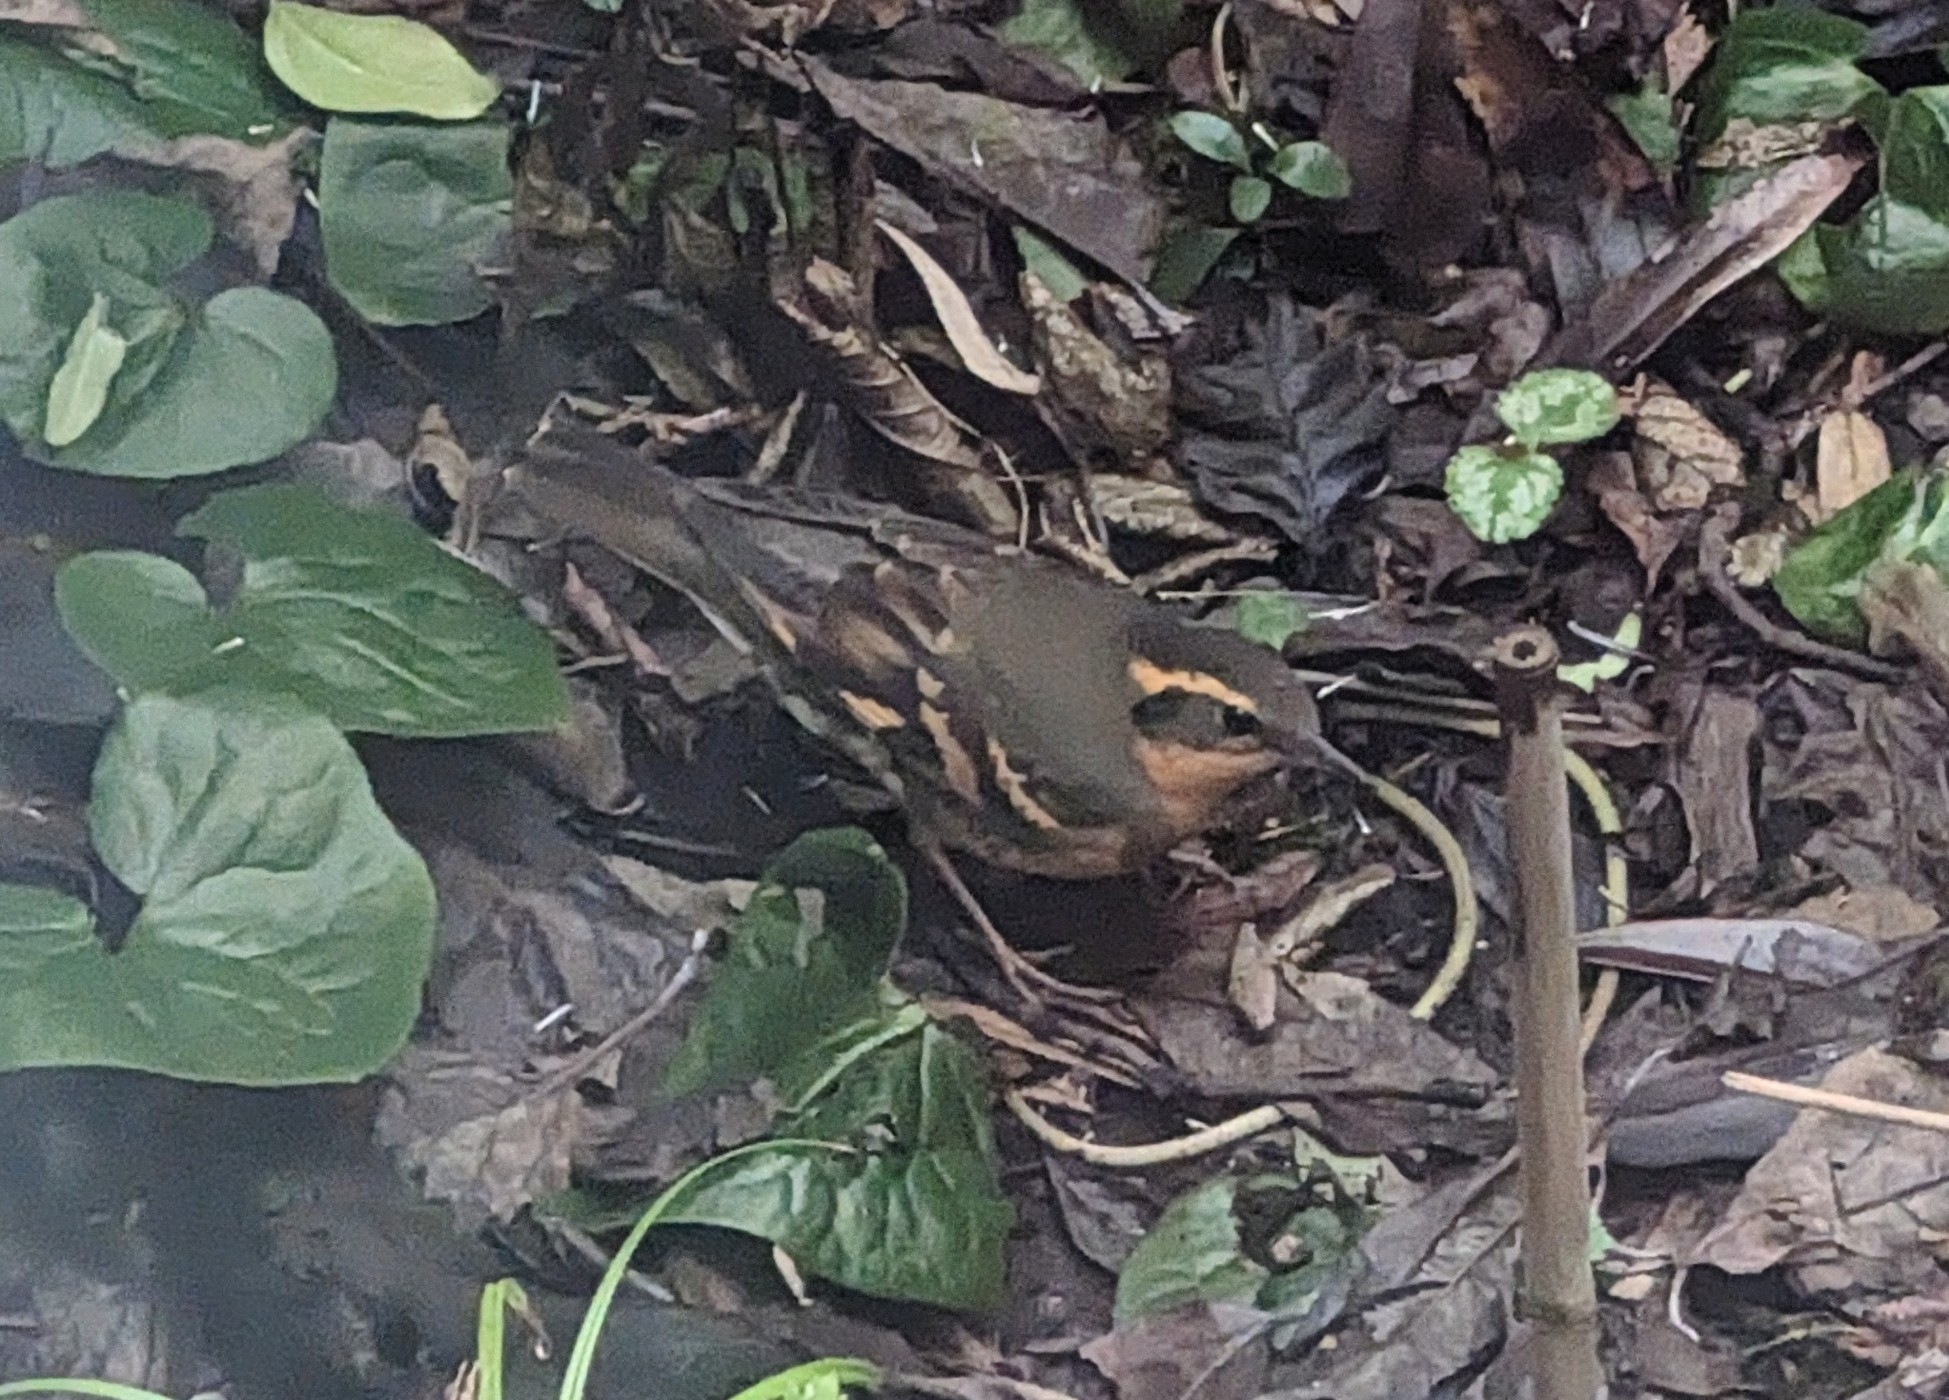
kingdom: Animalia
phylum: Chordata
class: Aves
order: Passeriformes
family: Turdidae
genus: Ixoreus
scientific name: Ixoreus naevius
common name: Varied thrush
